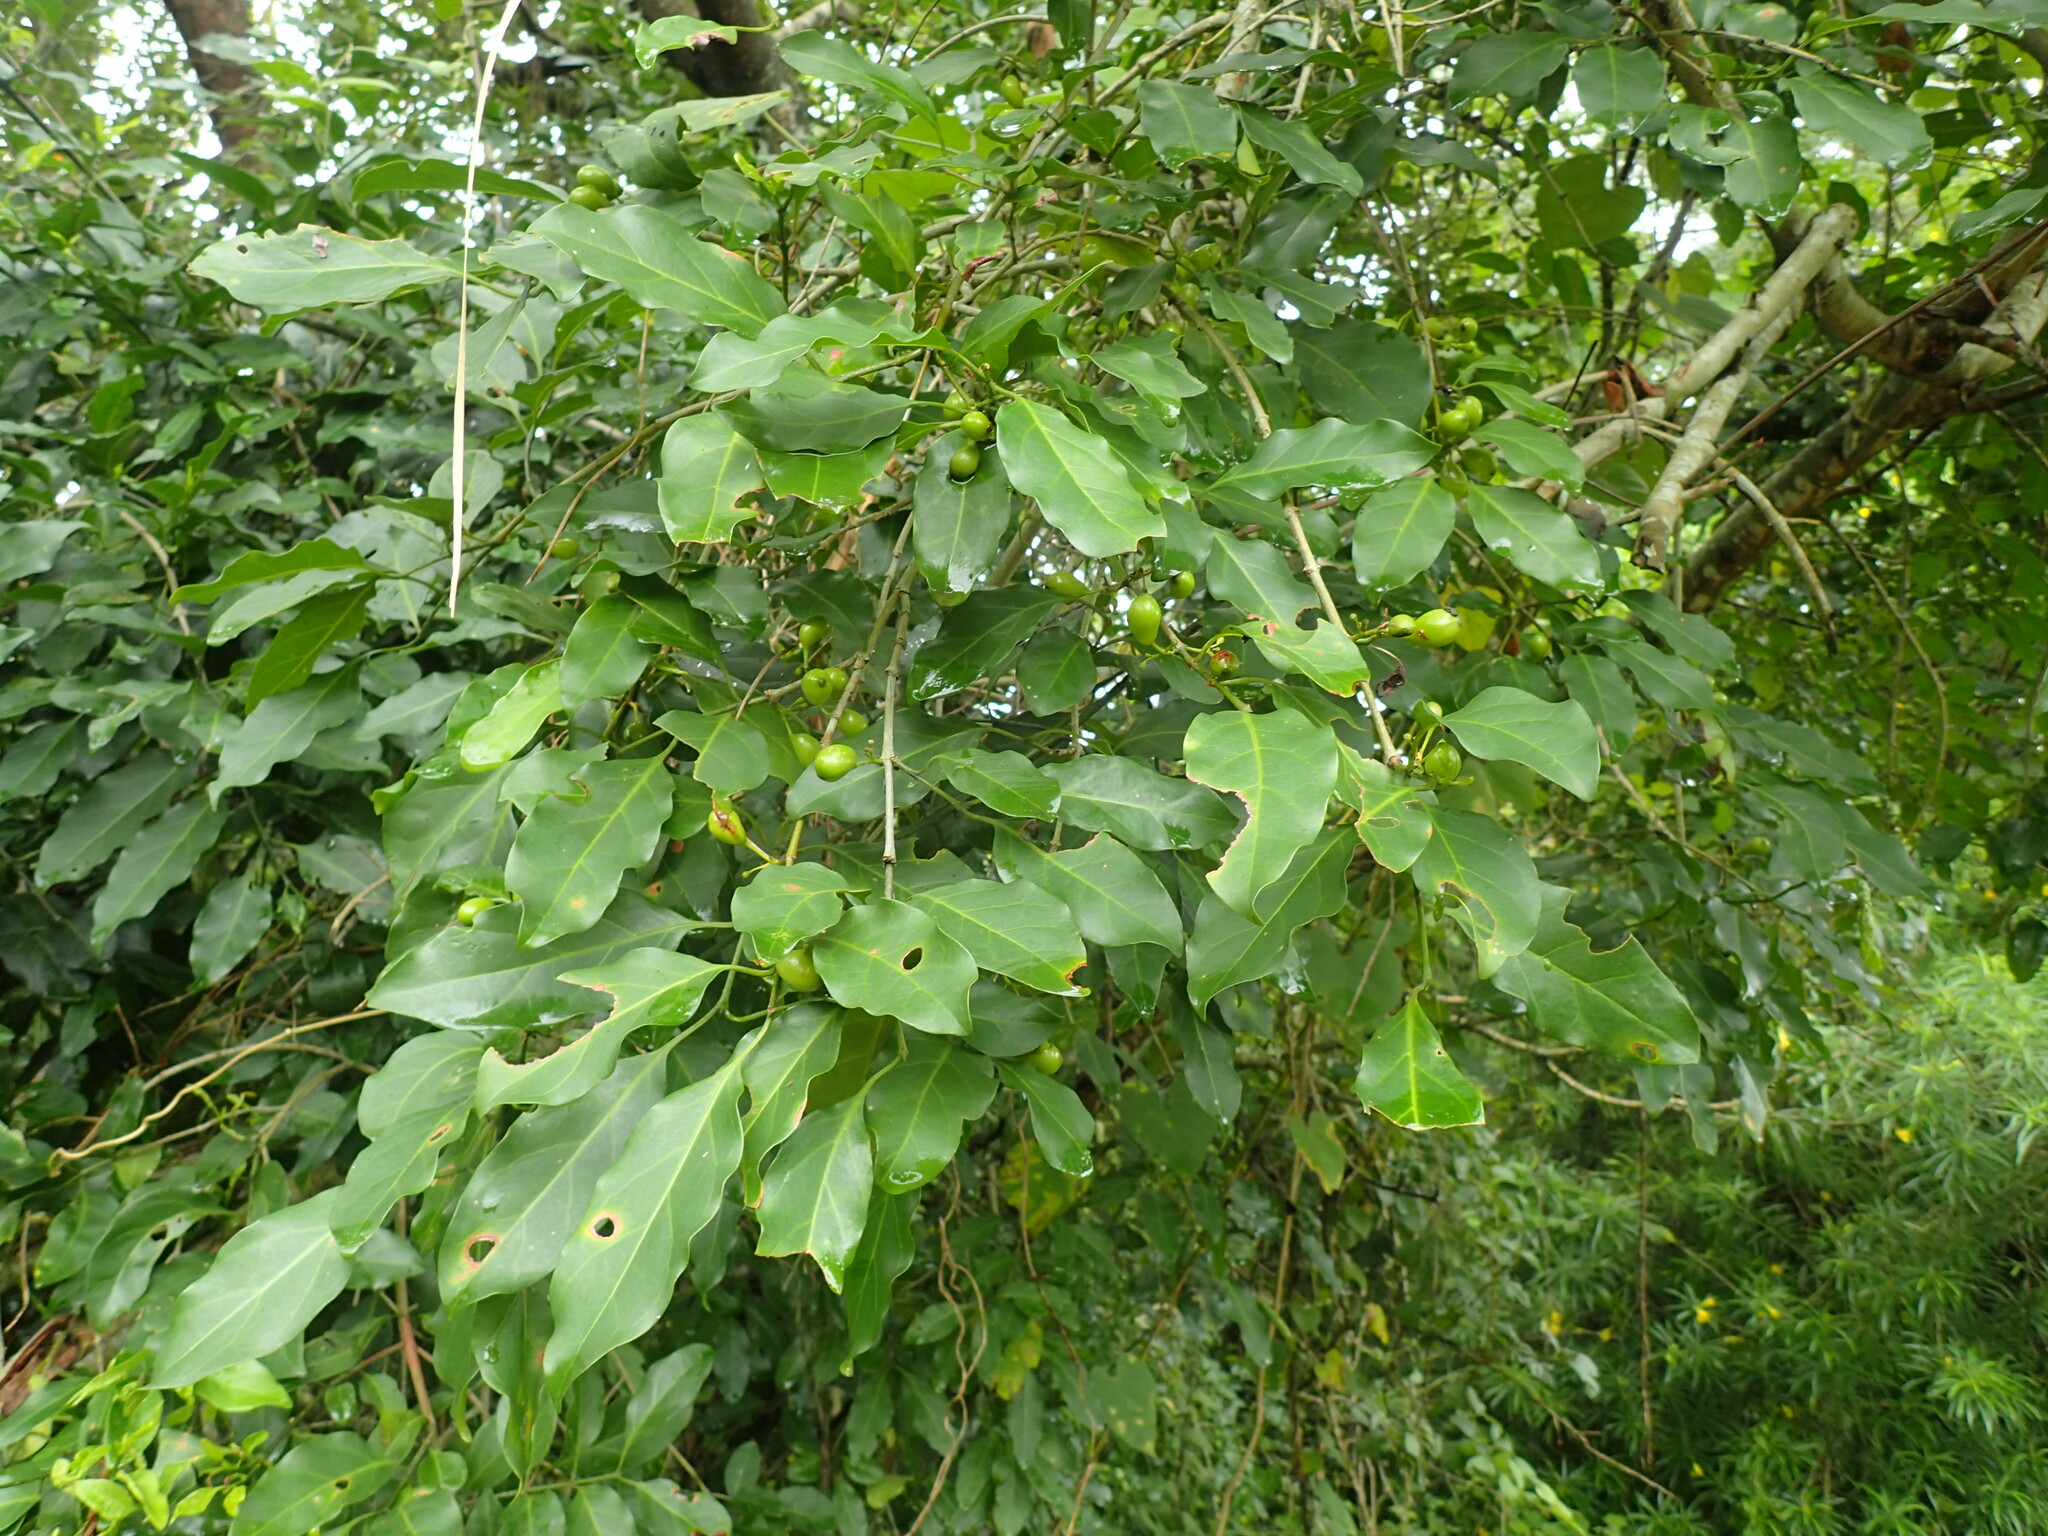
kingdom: Plantae
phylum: Tracheophyta
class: Magnoliopsida
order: Gentianales
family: Rubiaceae
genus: Canthium
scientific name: Canthium inerme
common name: Unarmed turkey-berry
